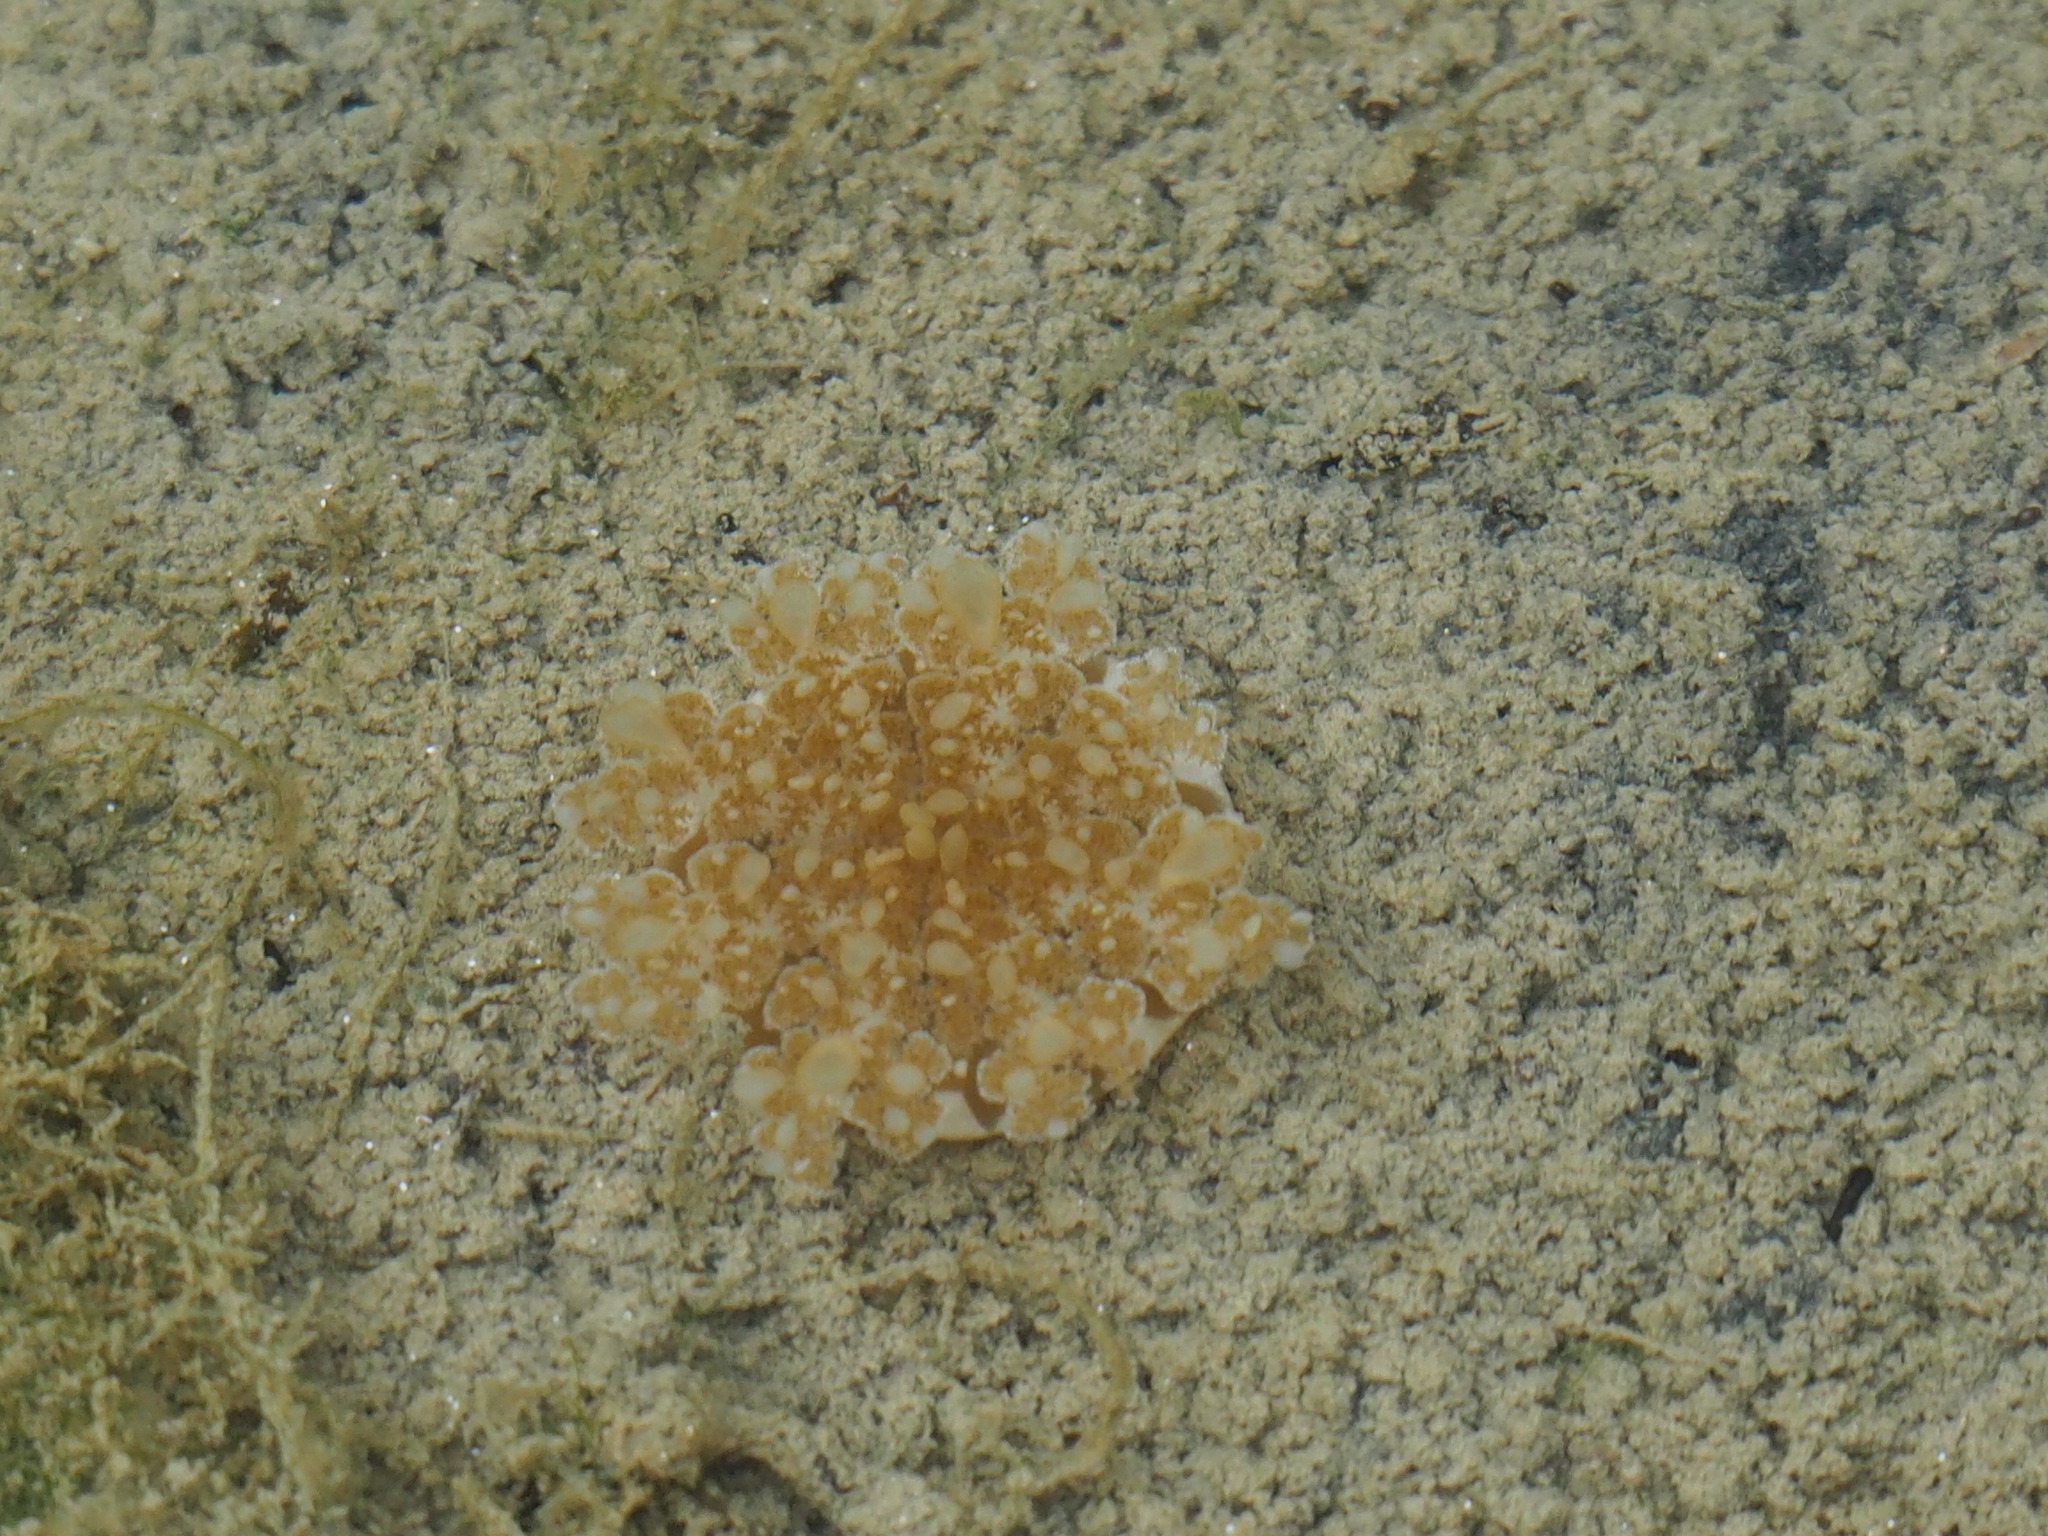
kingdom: Animalia
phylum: Cnidaria
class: Scyphozoa
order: Rhizostomeae
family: Cassiopeidae
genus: Cassiopea
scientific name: Cassiopea andromeda
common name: Upside-down jellyfish
